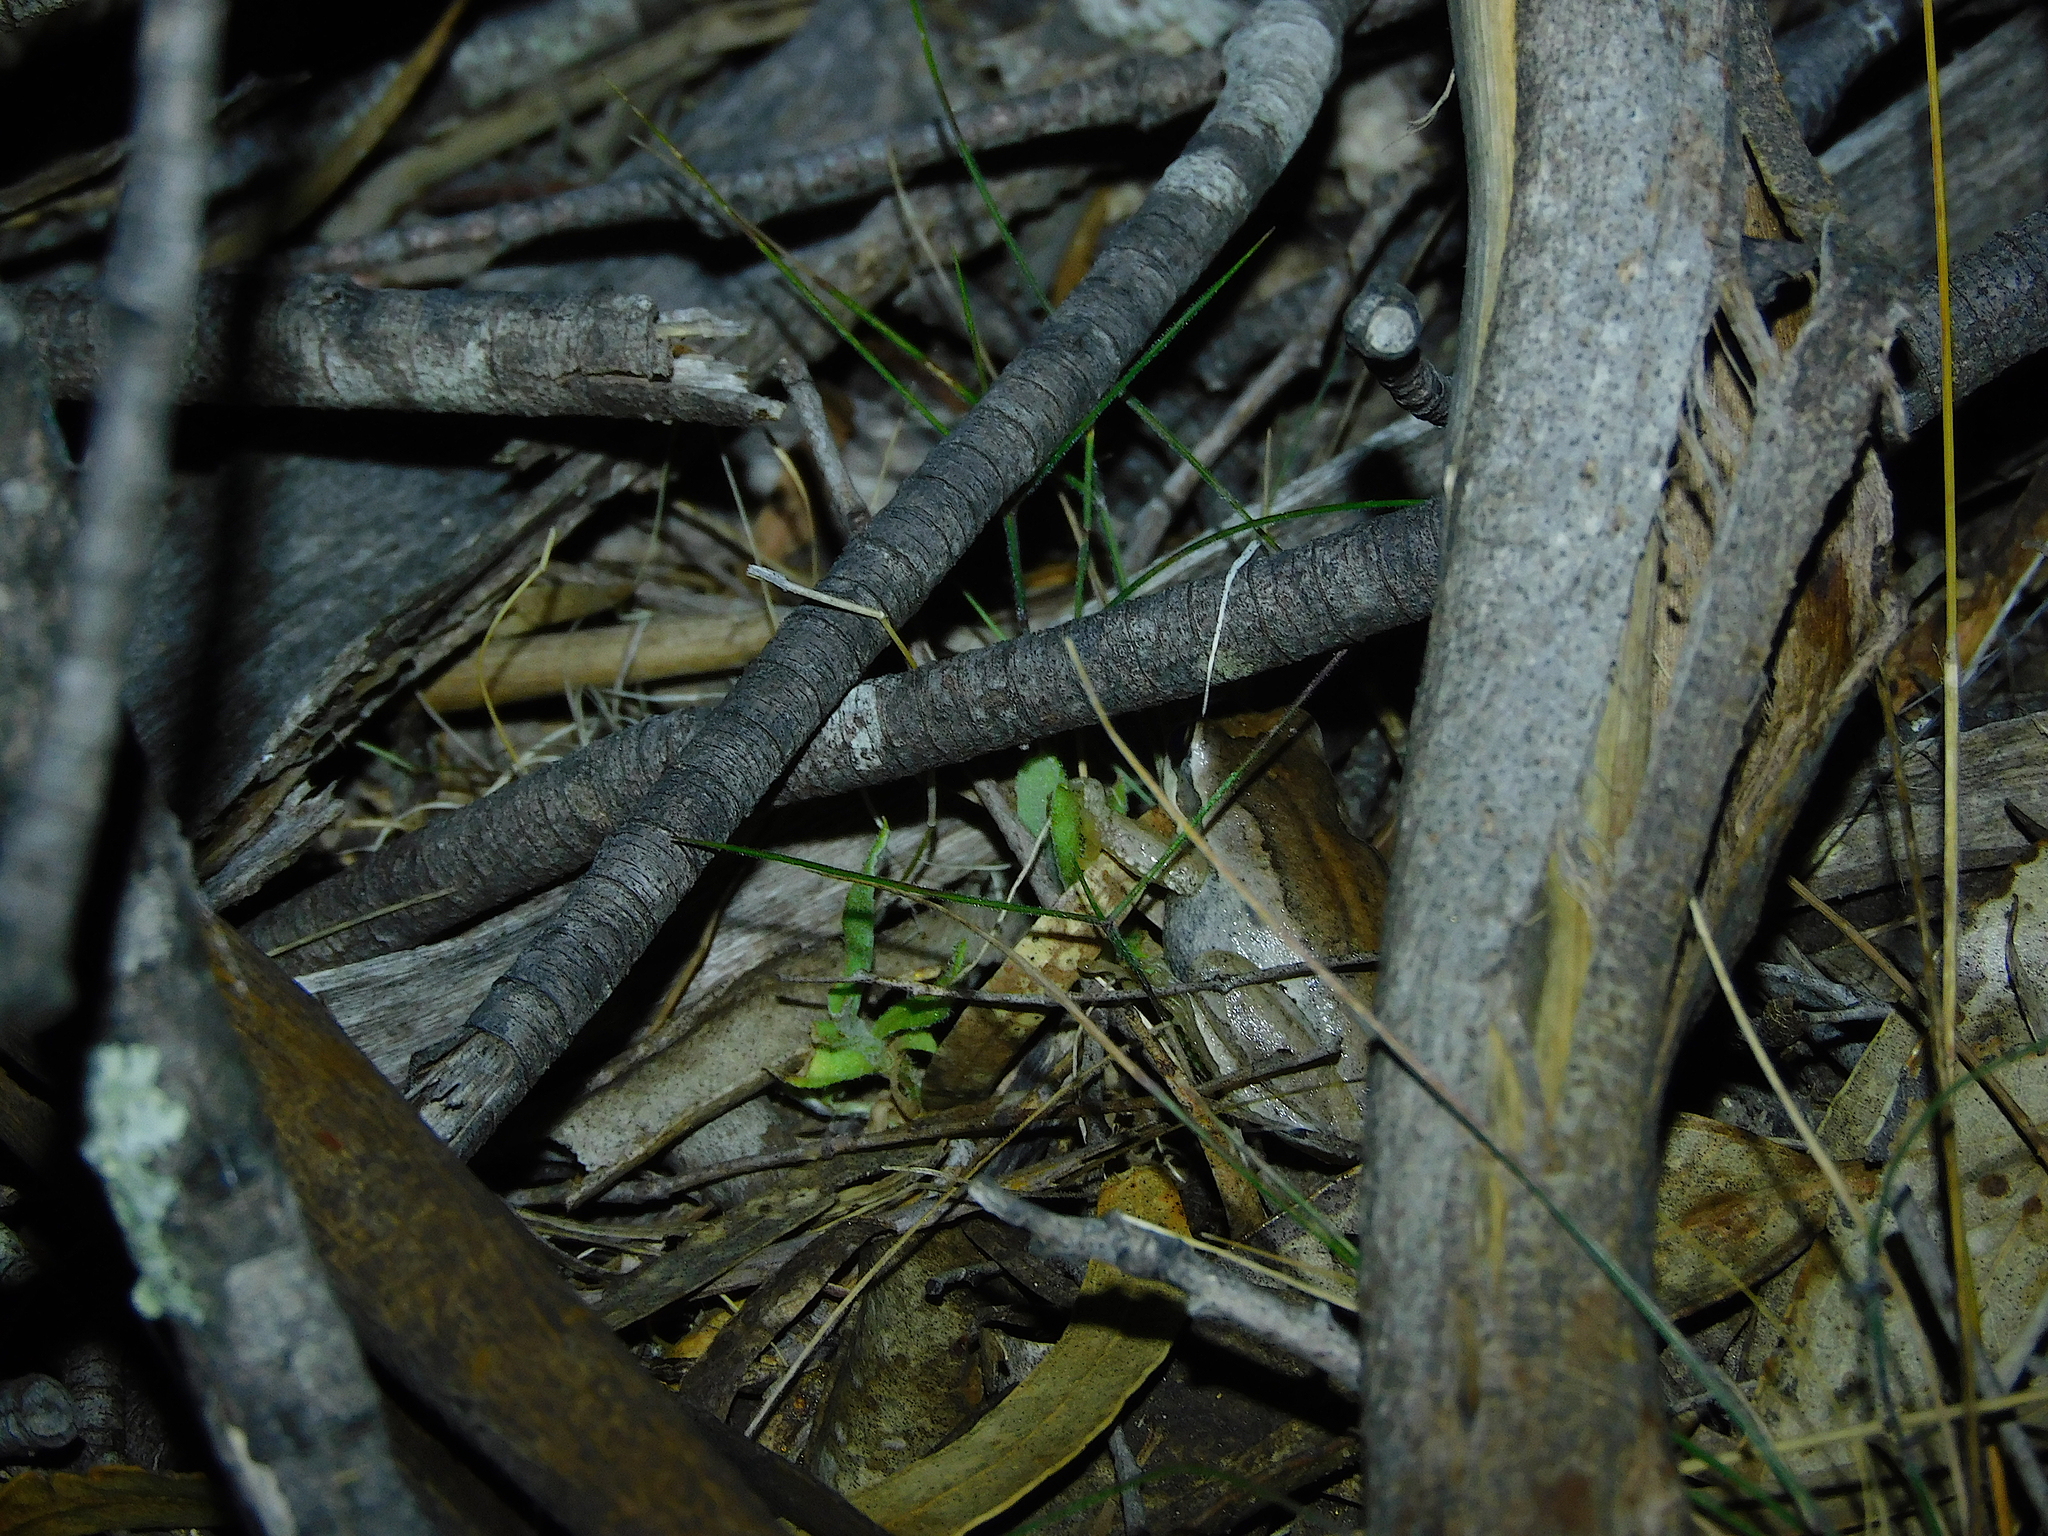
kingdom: Animalia
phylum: Chordata
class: Amphibia
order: Anura
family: Pelodryadidae
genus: Litoria
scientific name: Litoria ewingii
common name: Southern brown tree frog
